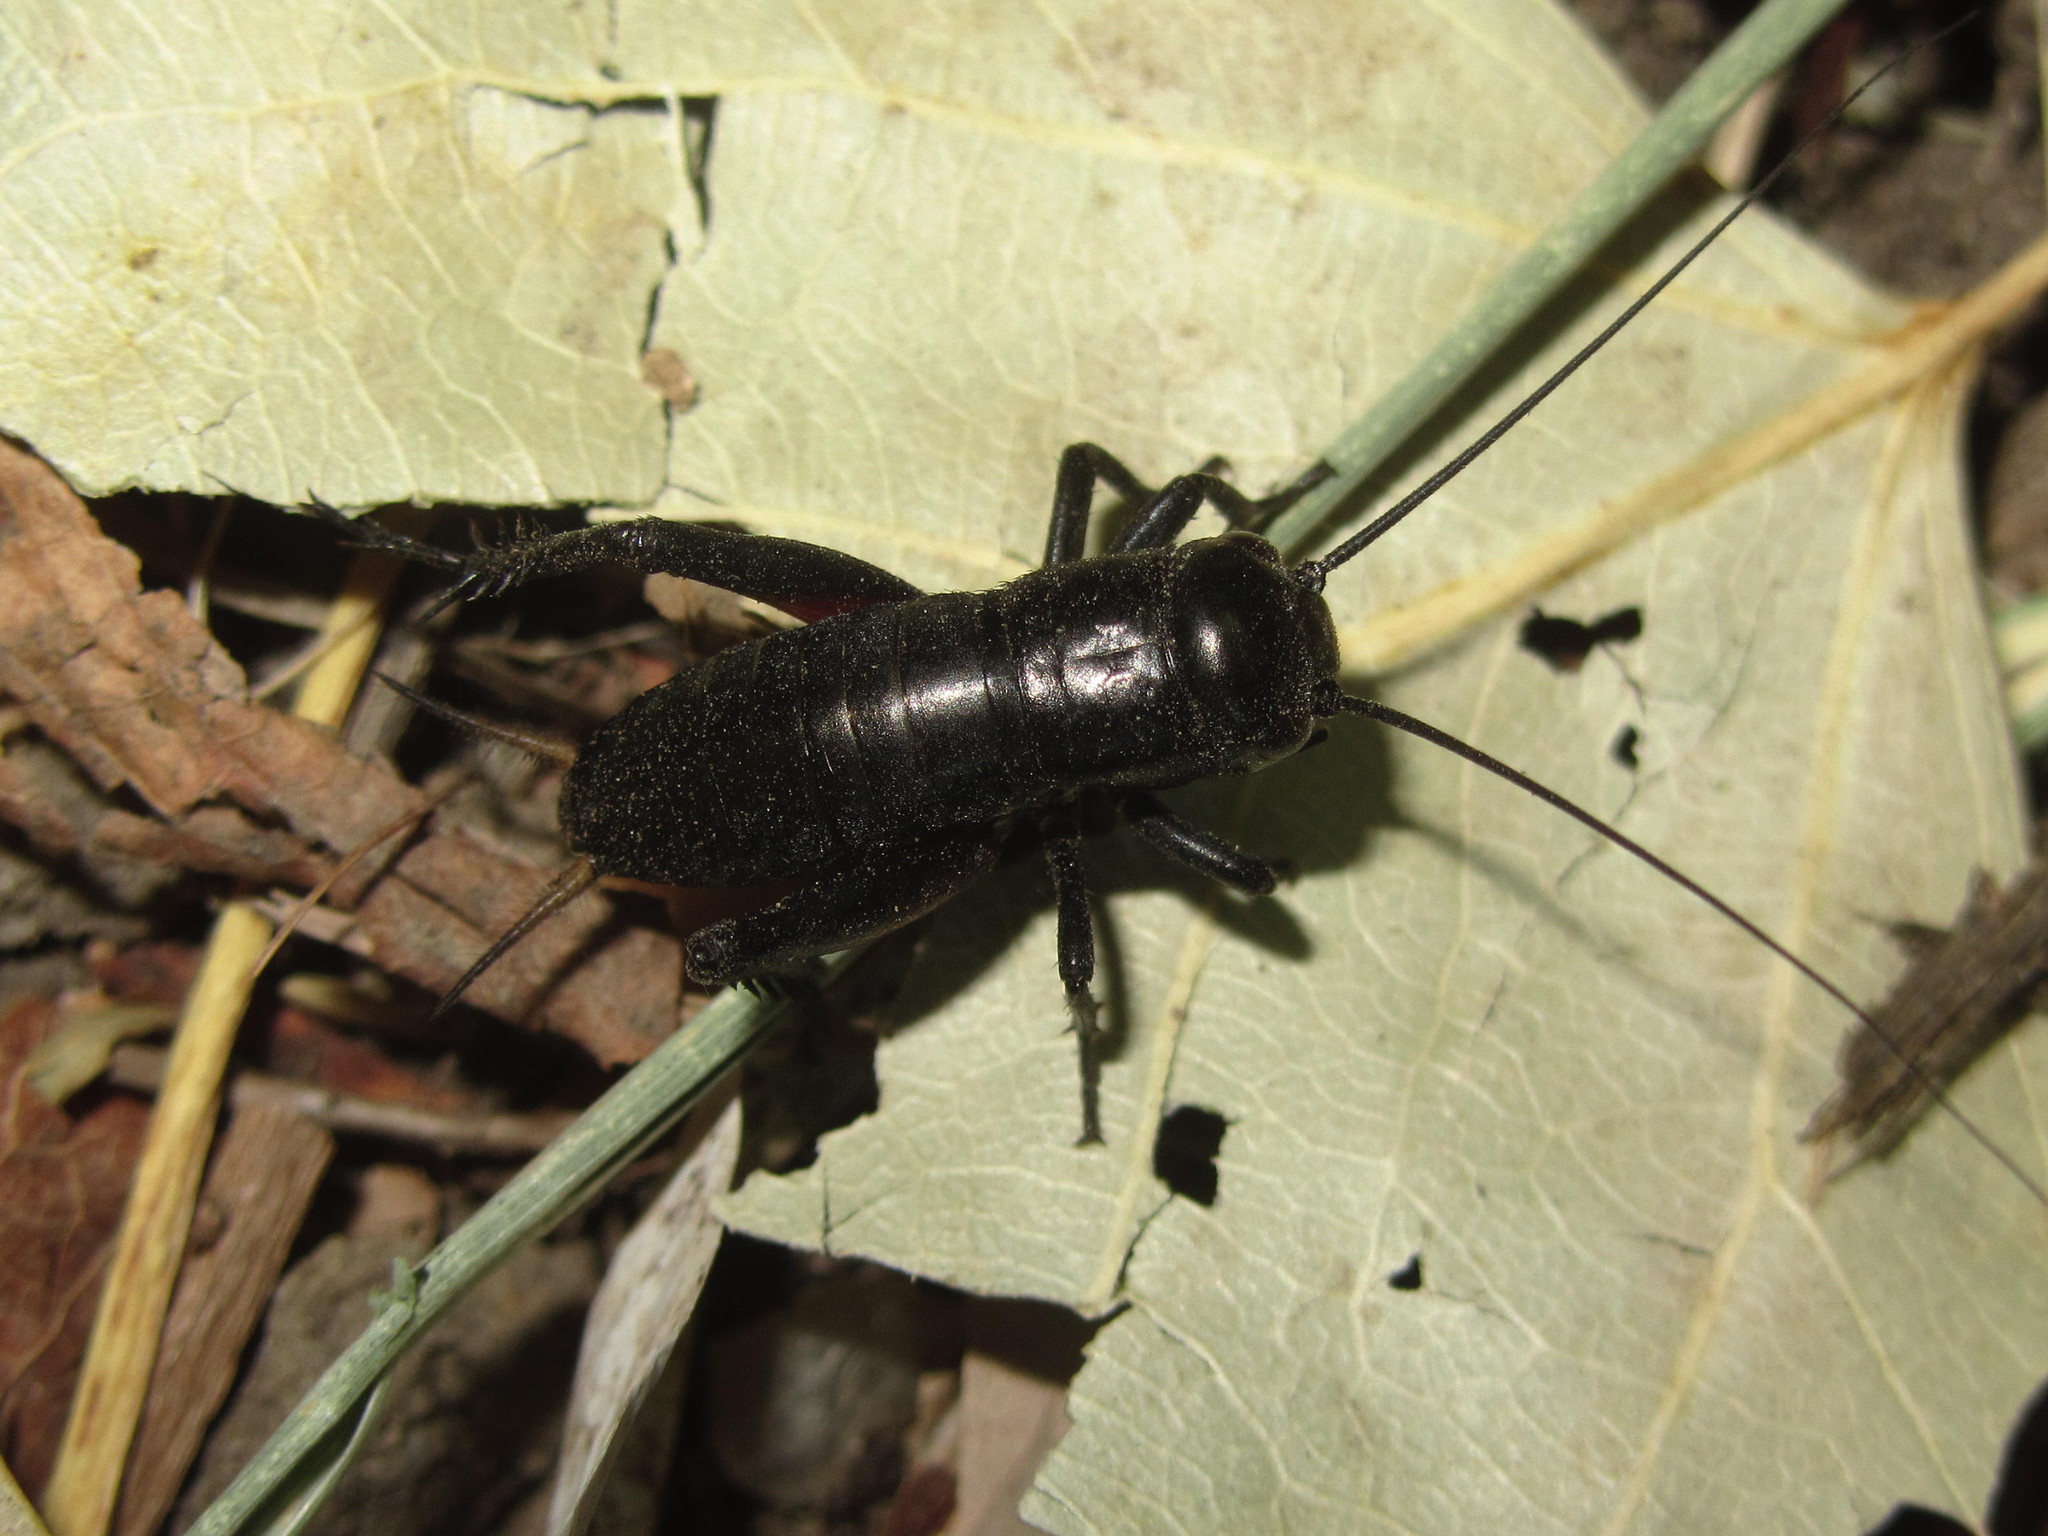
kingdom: Animalia
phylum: Arthropoda
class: Insecta
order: Orthoptera
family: Gryllidae
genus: Gryllus
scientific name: Gryllus campestris
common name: Field cricket
